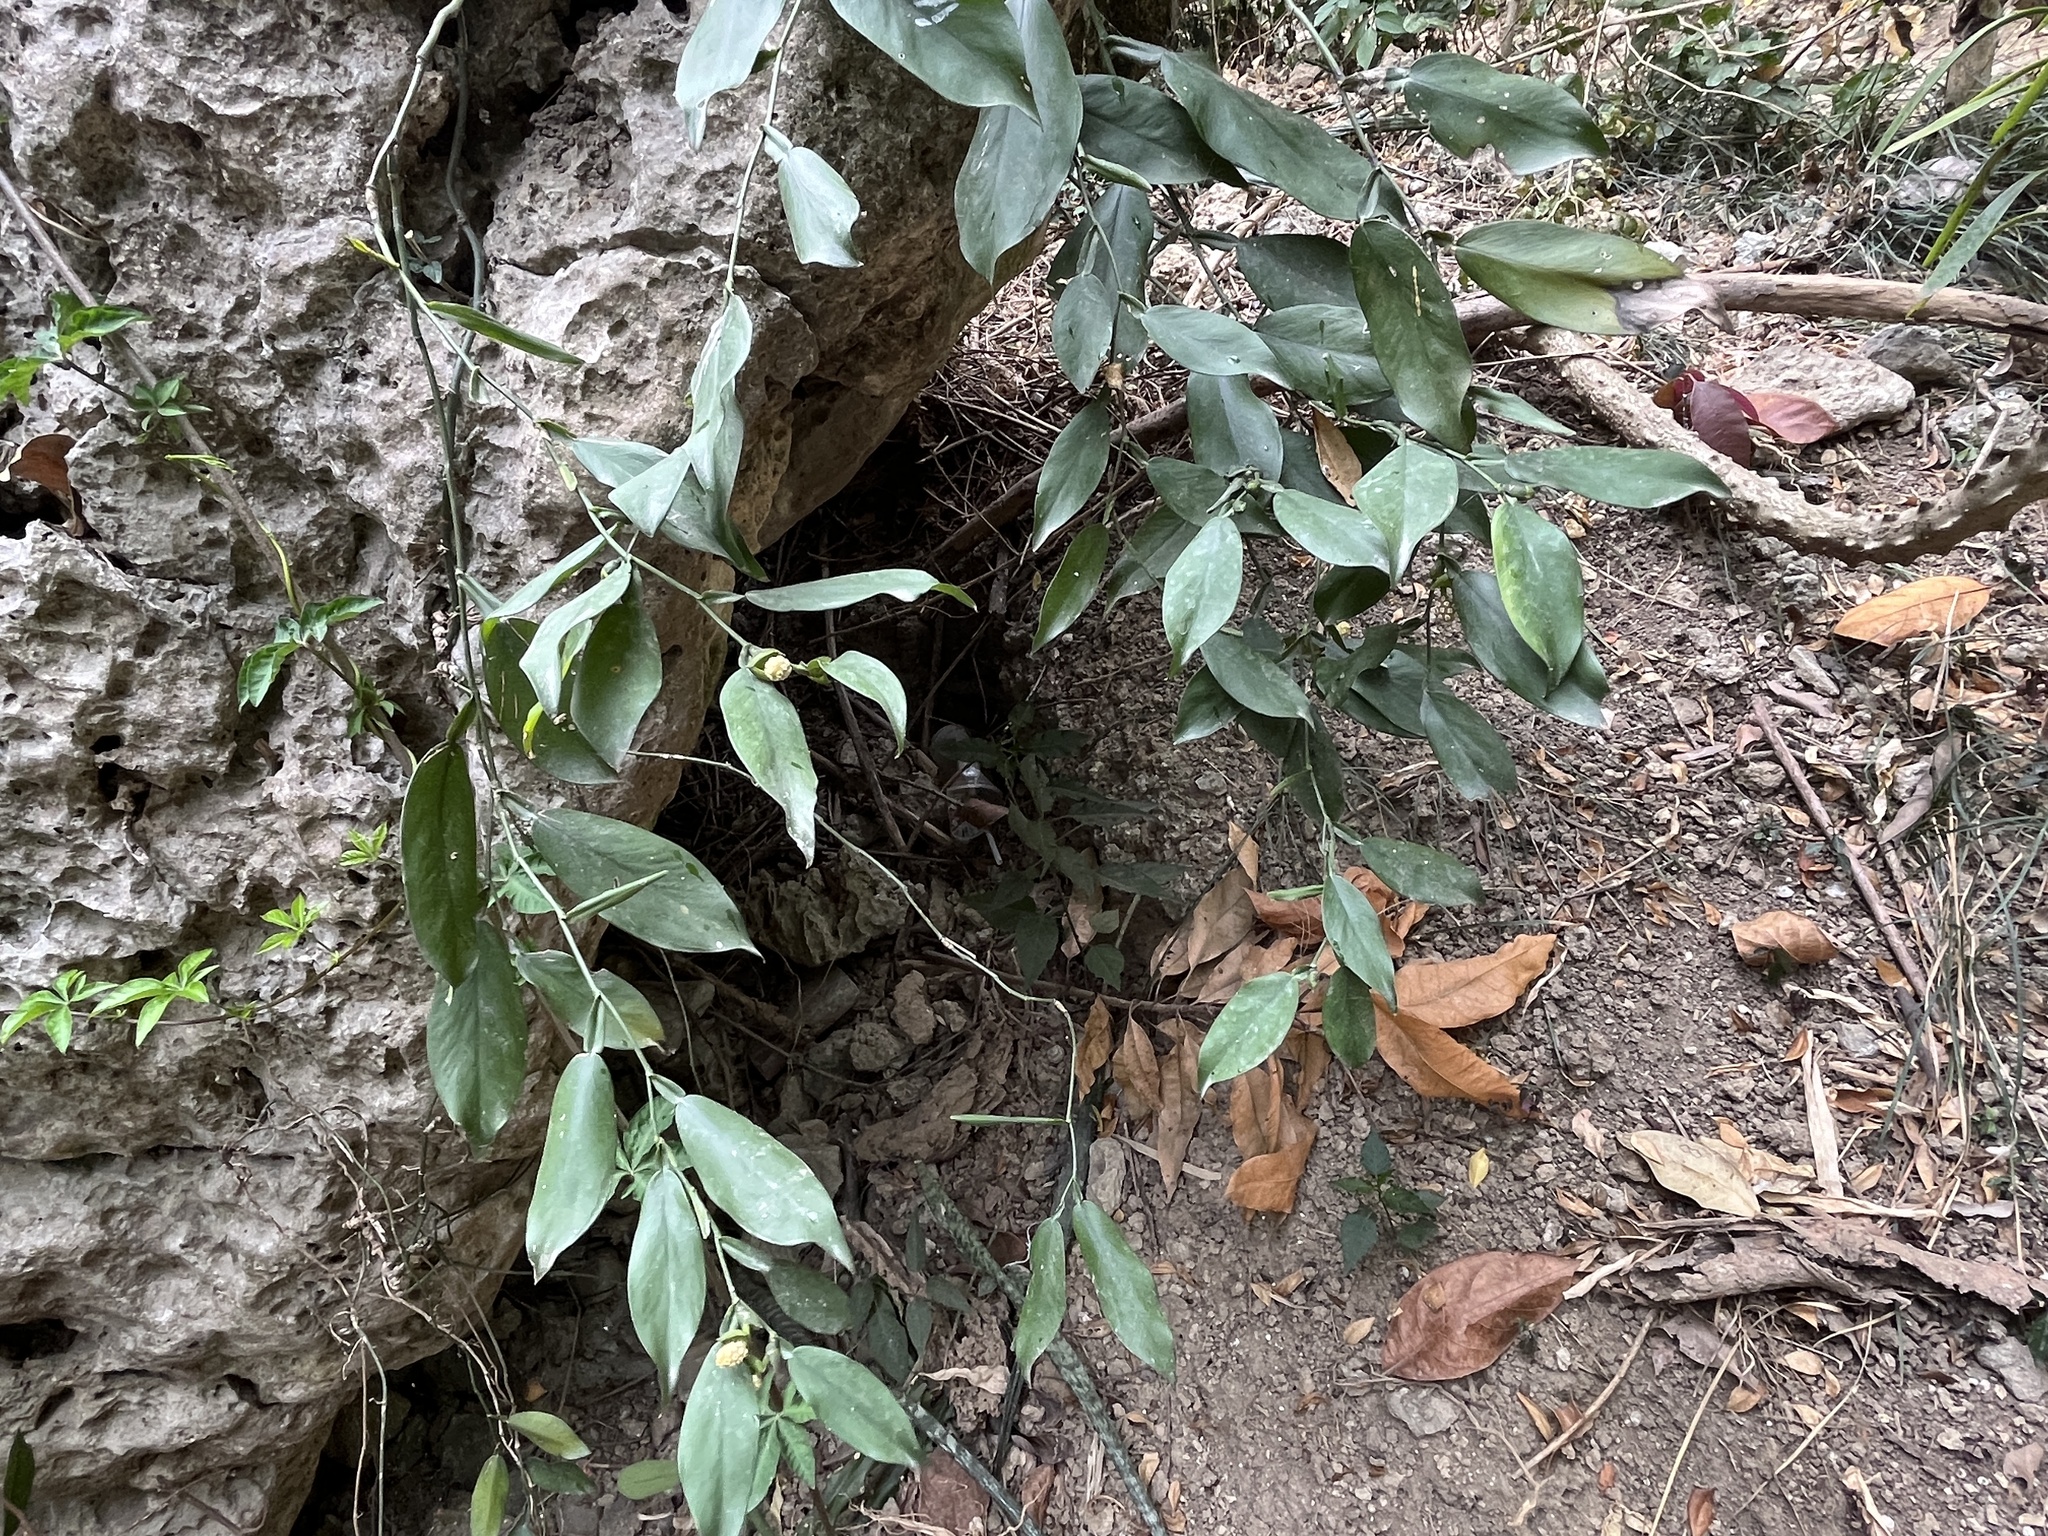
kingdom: Plantae
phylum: Tracheophyta
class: Liliopsida
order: Alismatales
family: Araceae
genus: Pothos
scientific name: Pothos chinensis
